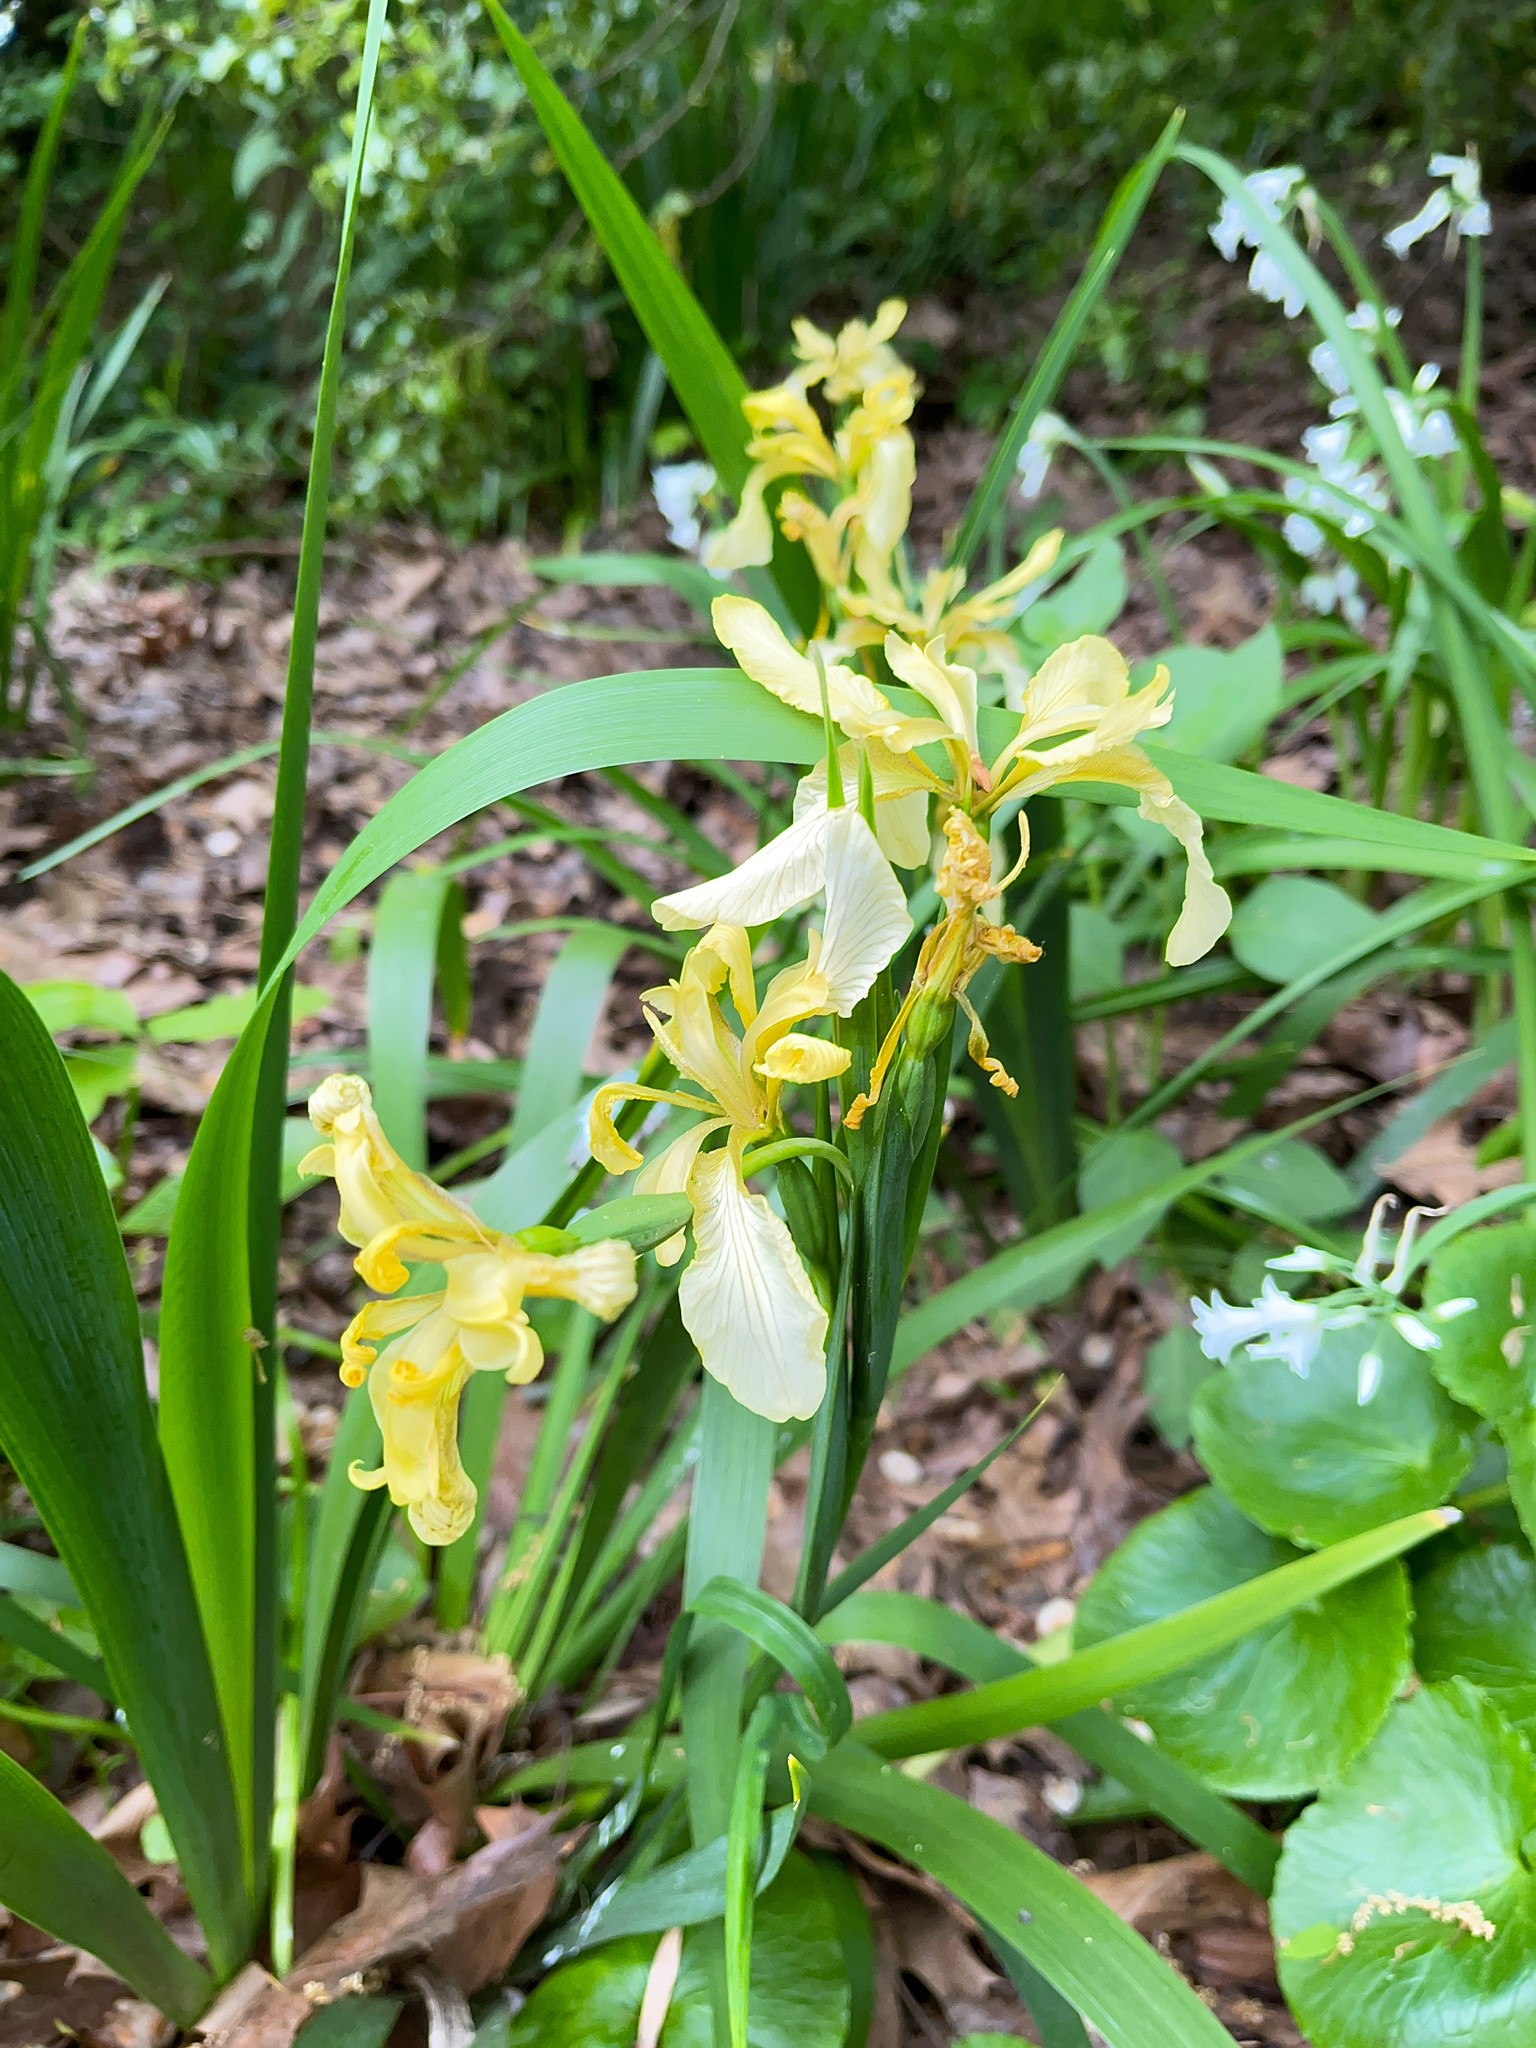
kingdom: Plantae
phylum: Tracheophyta
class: Liliopsida
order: Asparagales
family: Iridaceae
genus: Iris
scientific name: Iris foetidissima
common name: Stinking iris
